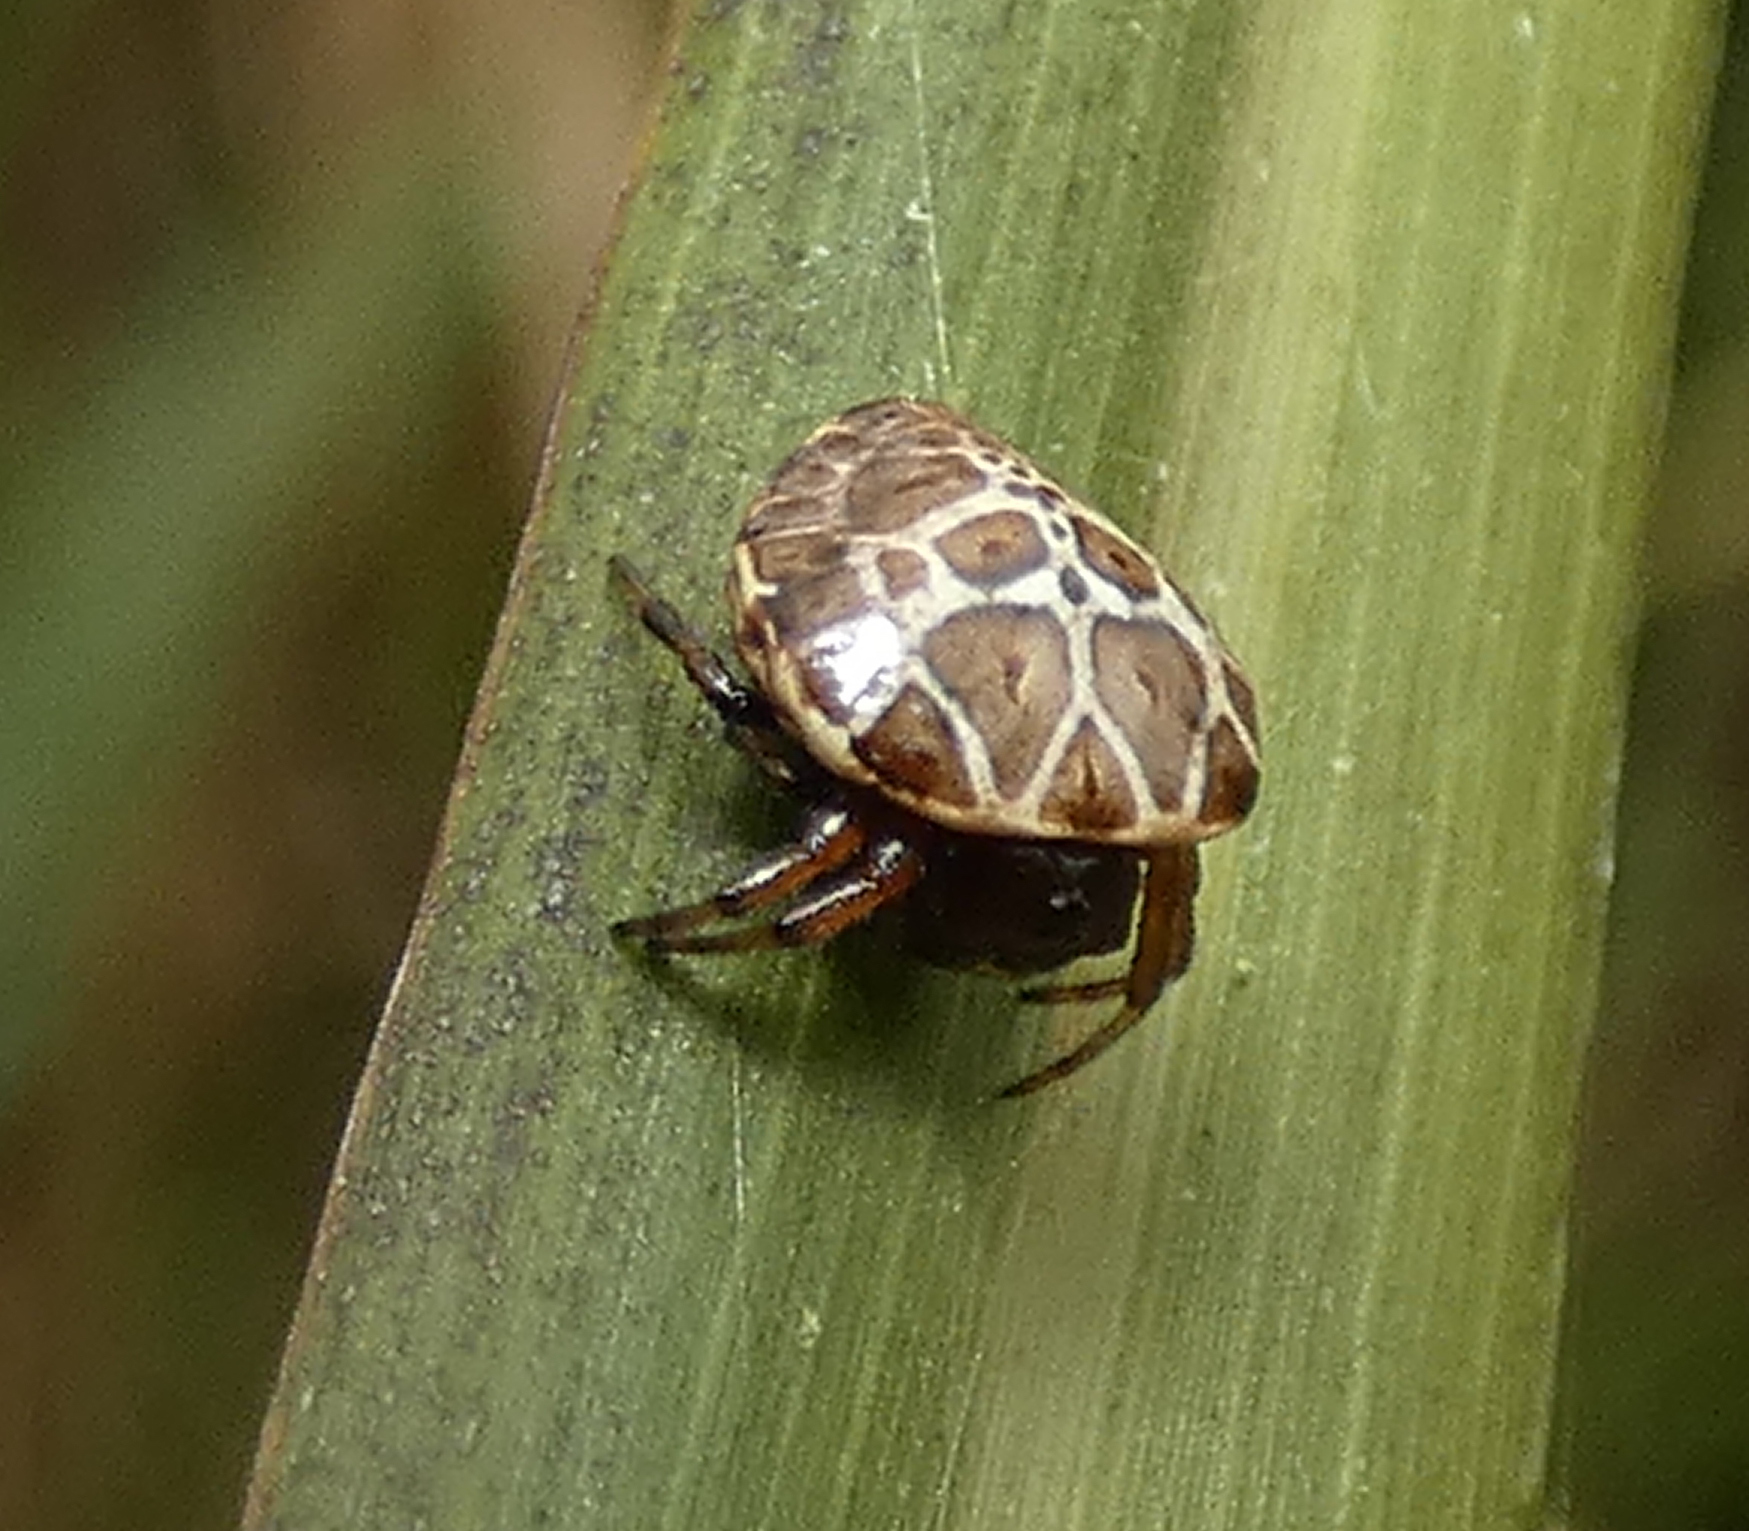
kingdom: Animalia
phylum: Arthropoda
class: Arachnida
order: Araneae
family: Araneidae
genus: Hypognatha
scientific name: Hypognatha nasuta
